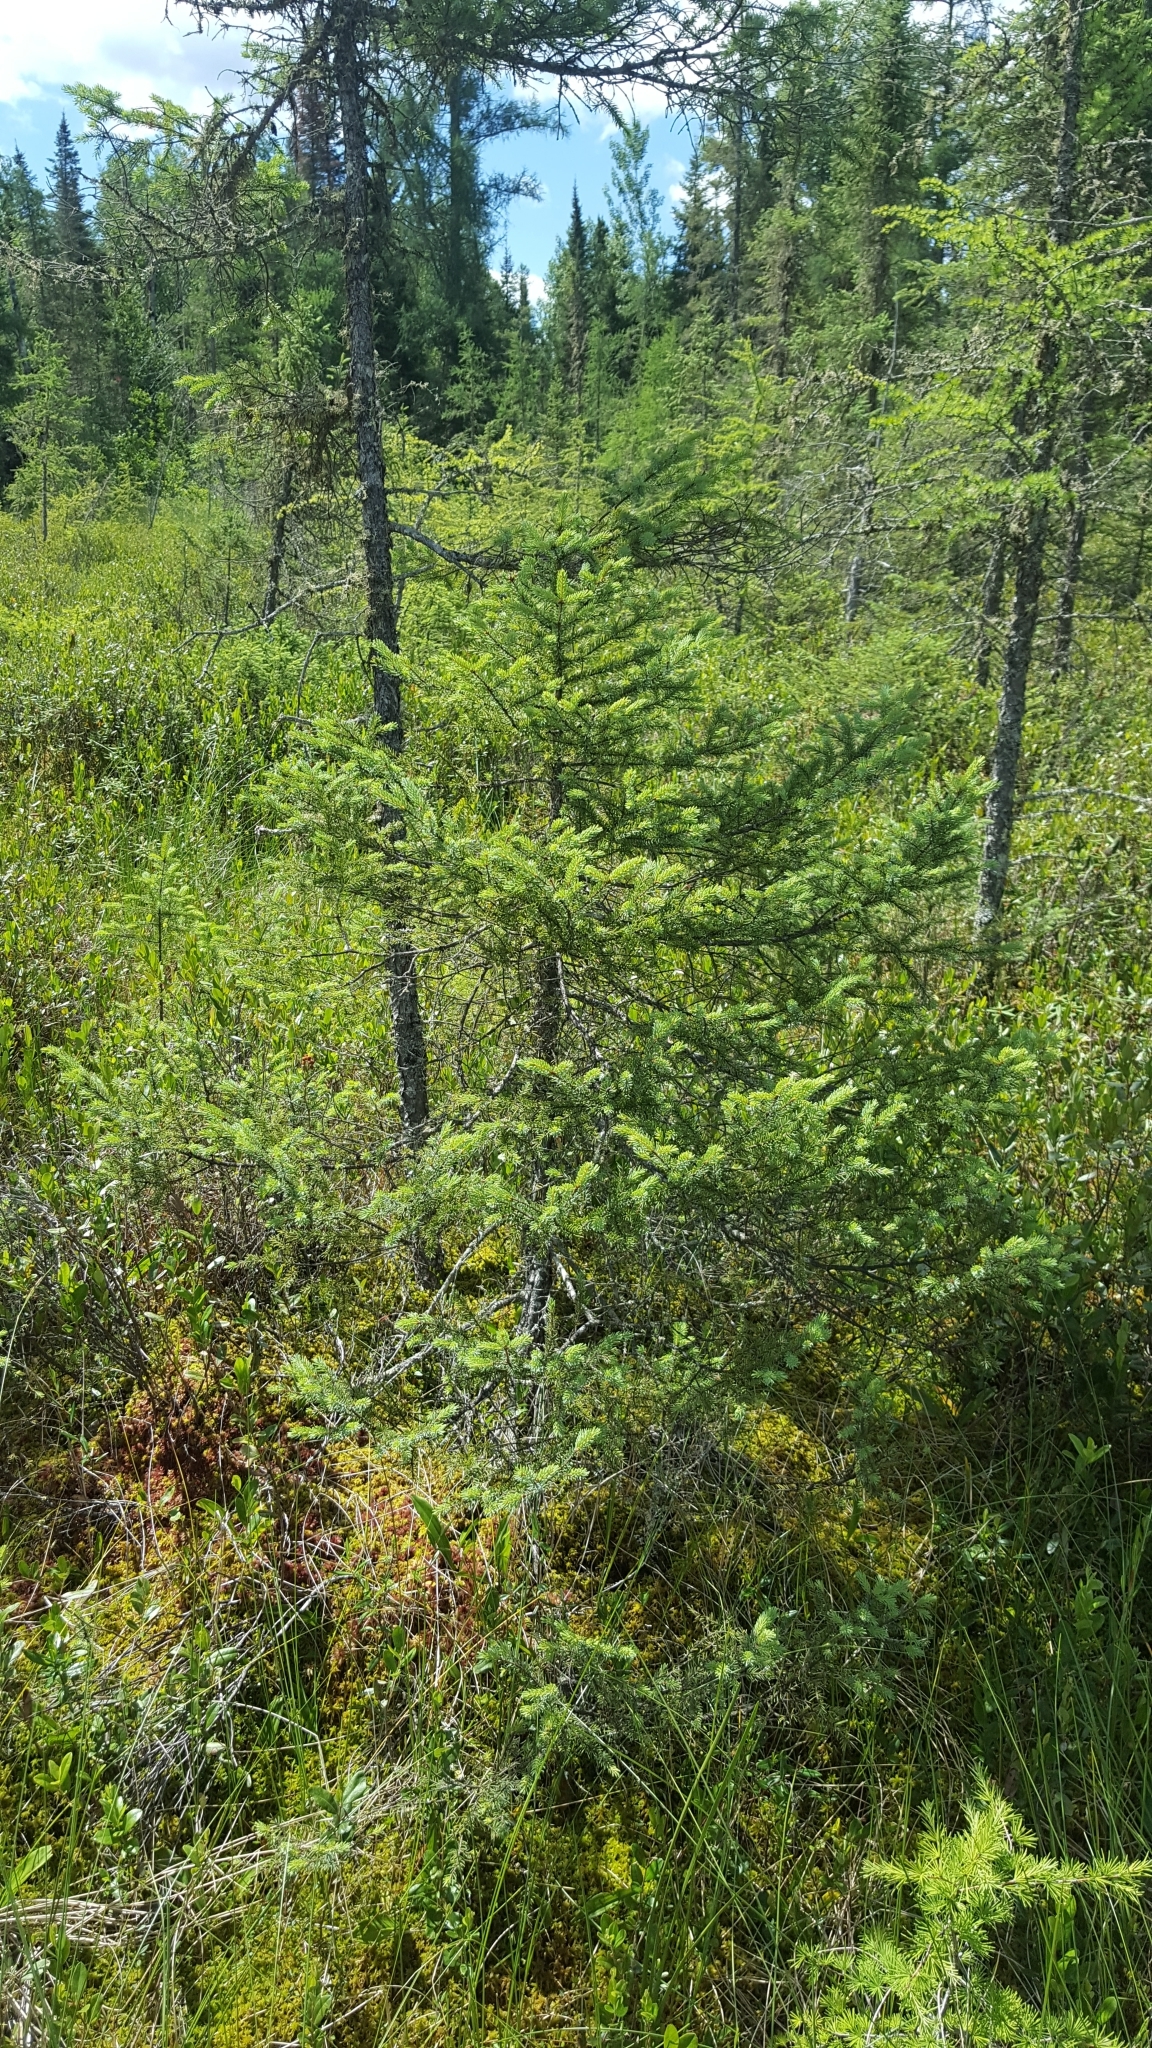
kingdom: Plantae
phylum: Tracheophyta
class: Pinopsida
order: Pinales
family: Pinaceae
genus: Picea
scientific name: Picea mariana
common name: Black spruce
